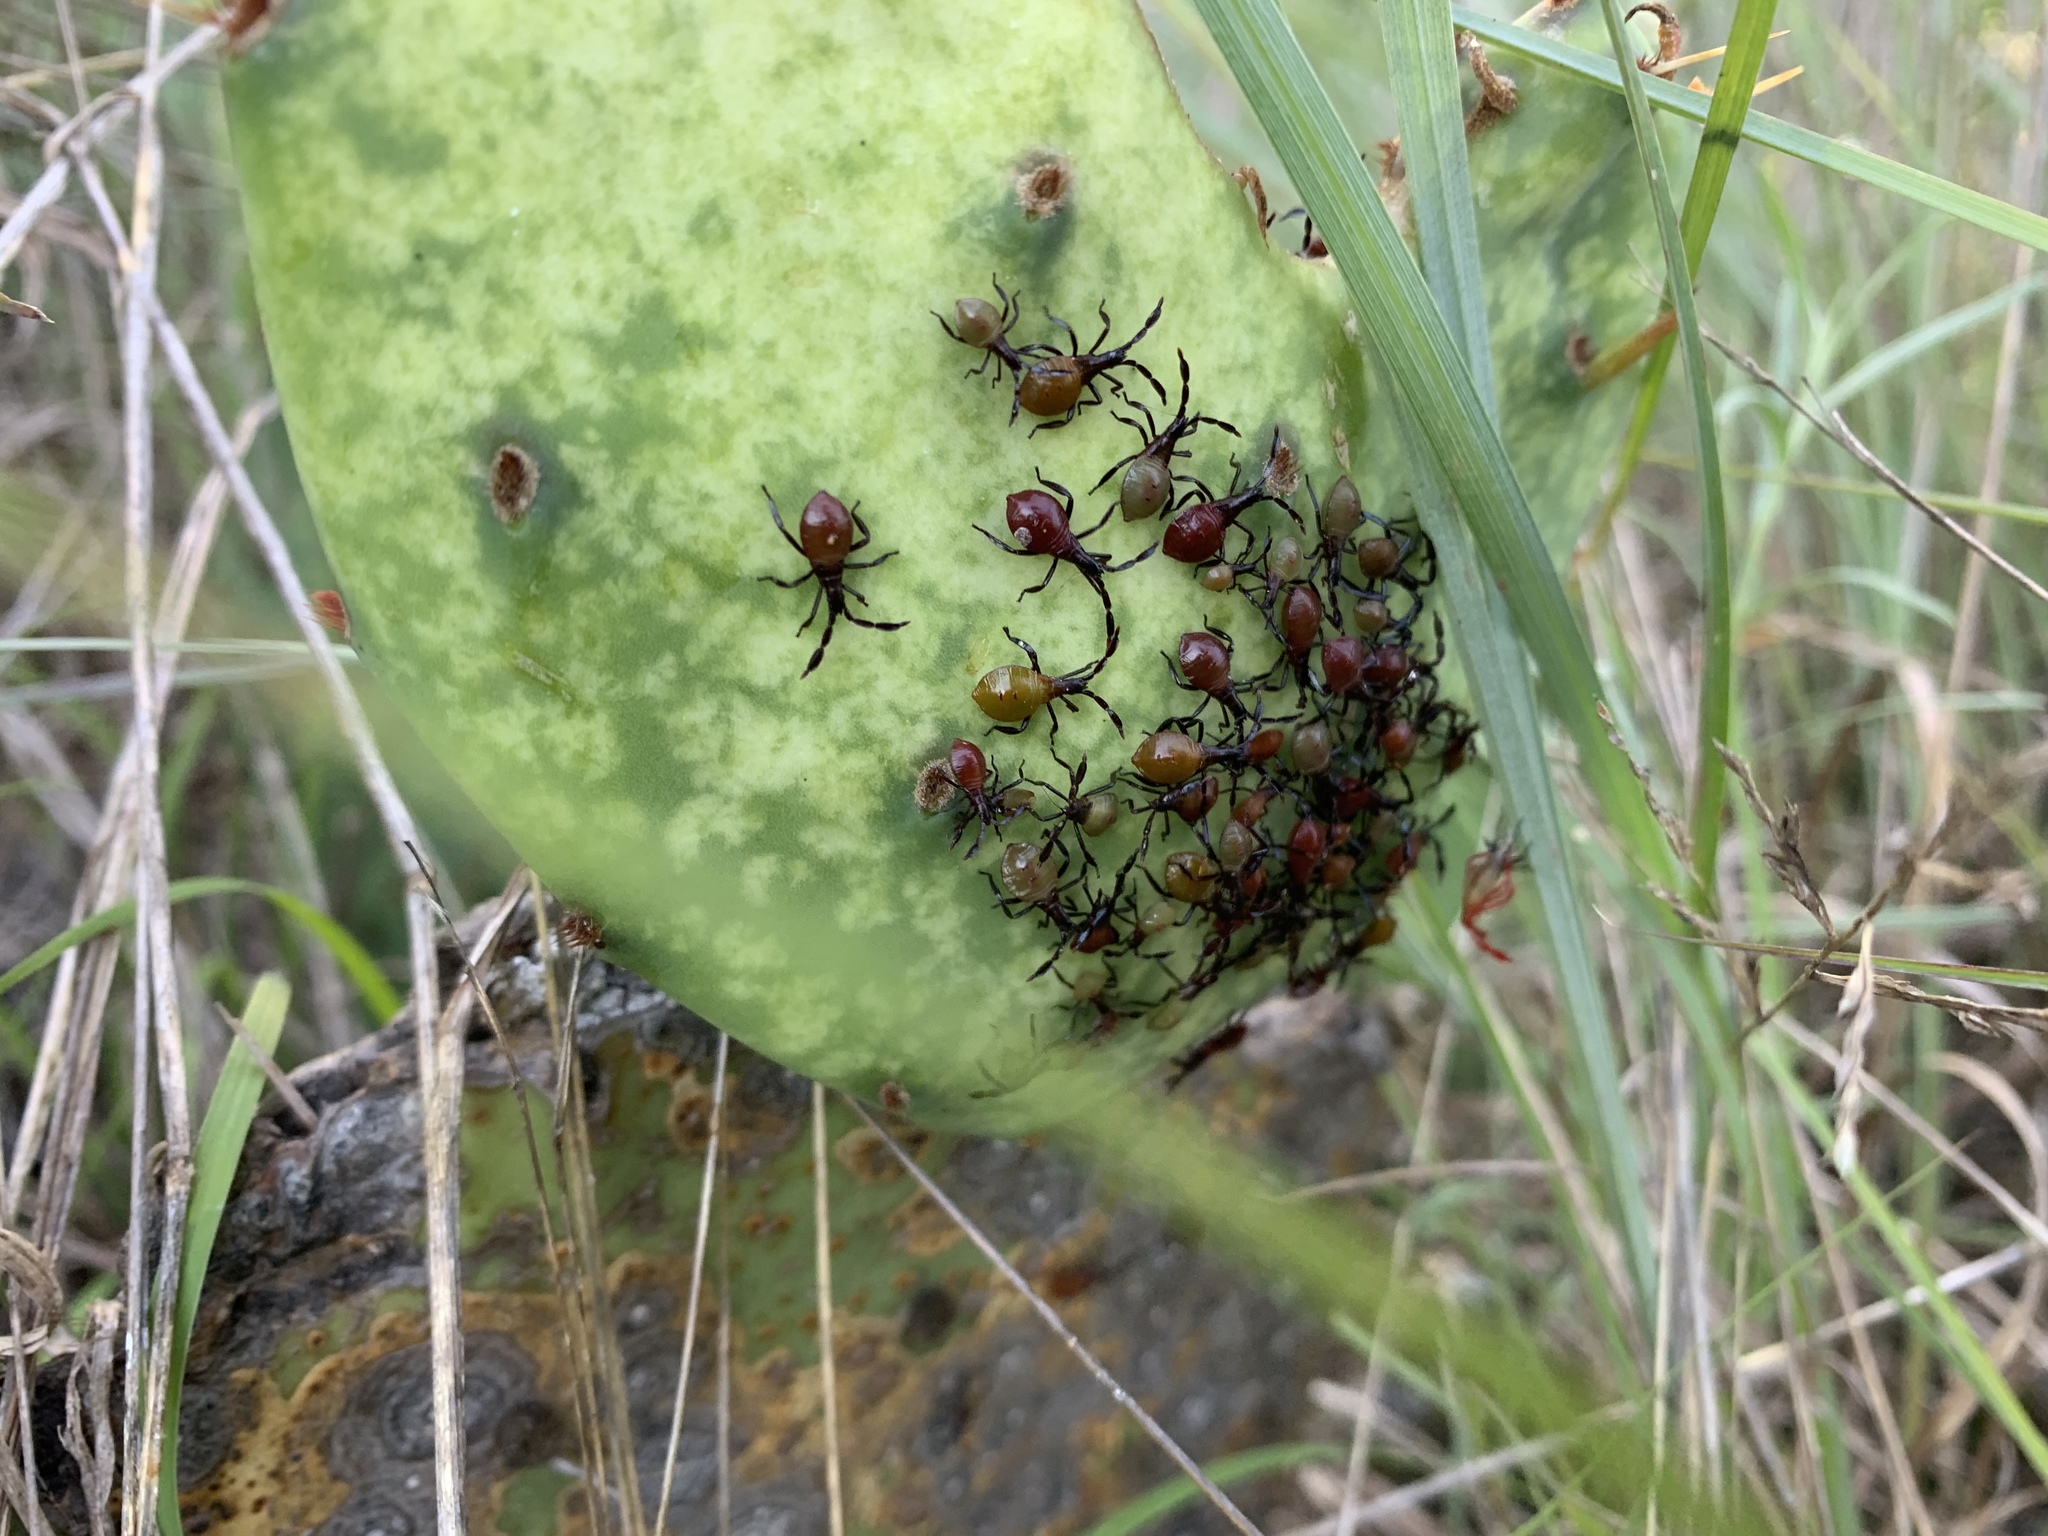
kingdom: Animalia
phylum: Arthropoda
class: Insecta
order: Hemiptera
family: Coreidae
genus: Chelinidea
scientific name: Chelinidea vittiger
